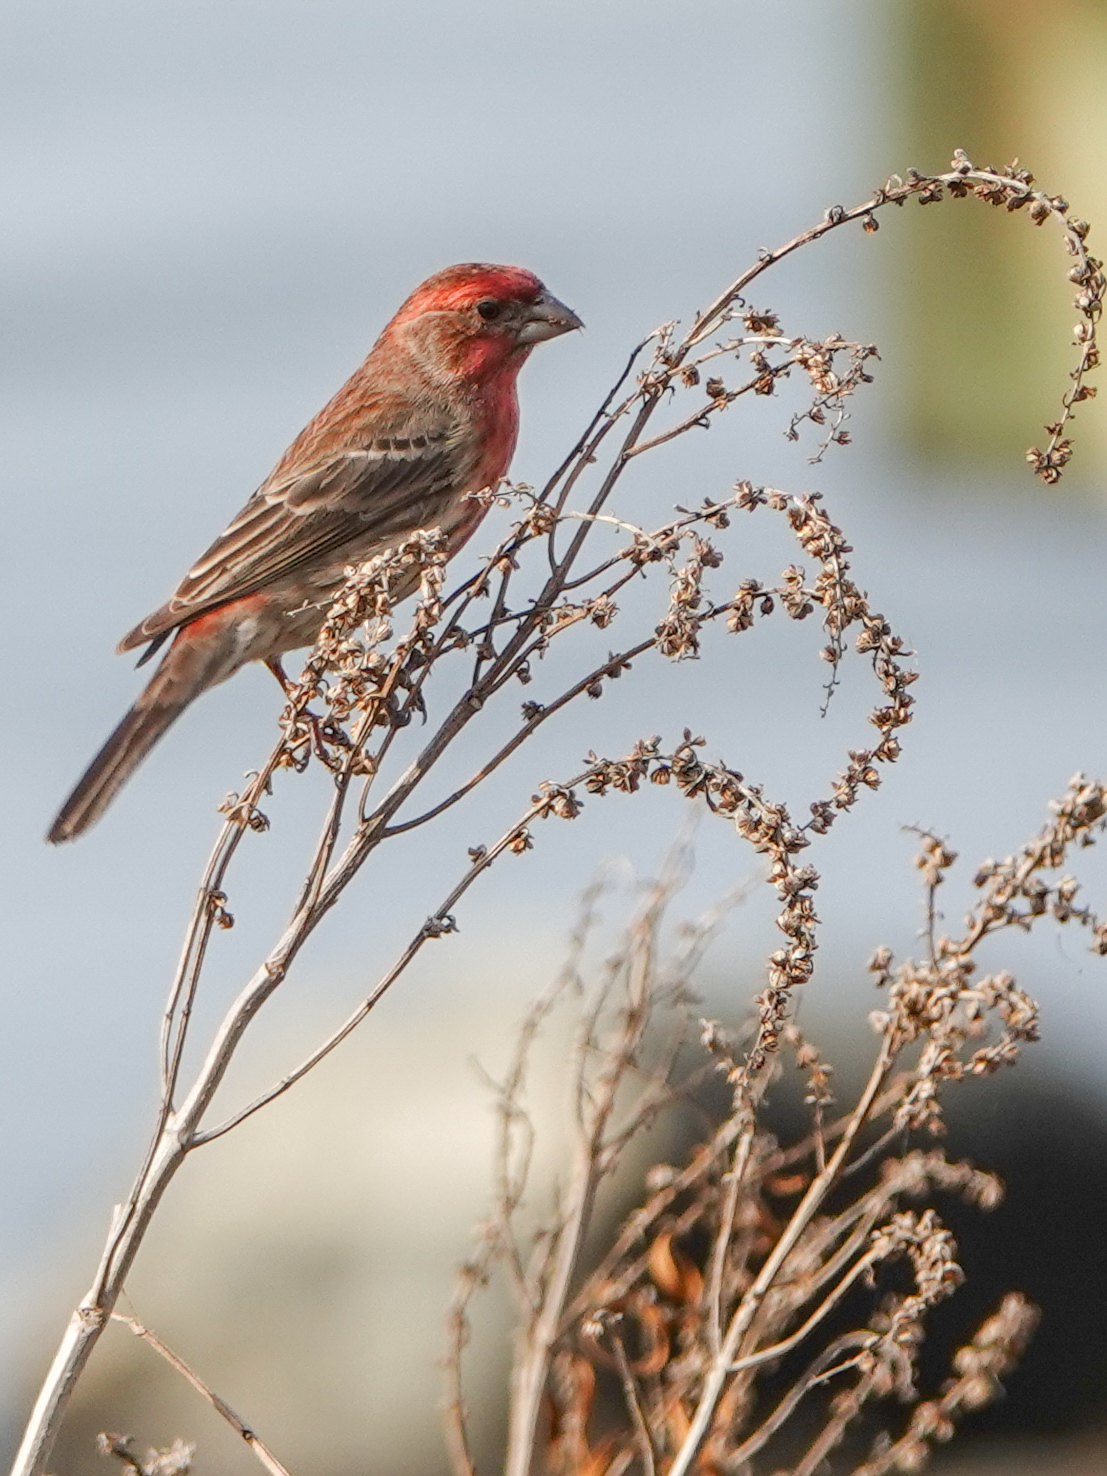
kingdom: Animalia
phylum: Chordata
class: Aves
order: Passeriformes
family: Fringillidae
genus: Haemorhous
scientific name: Haemorhous mexicanus
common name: House finch
